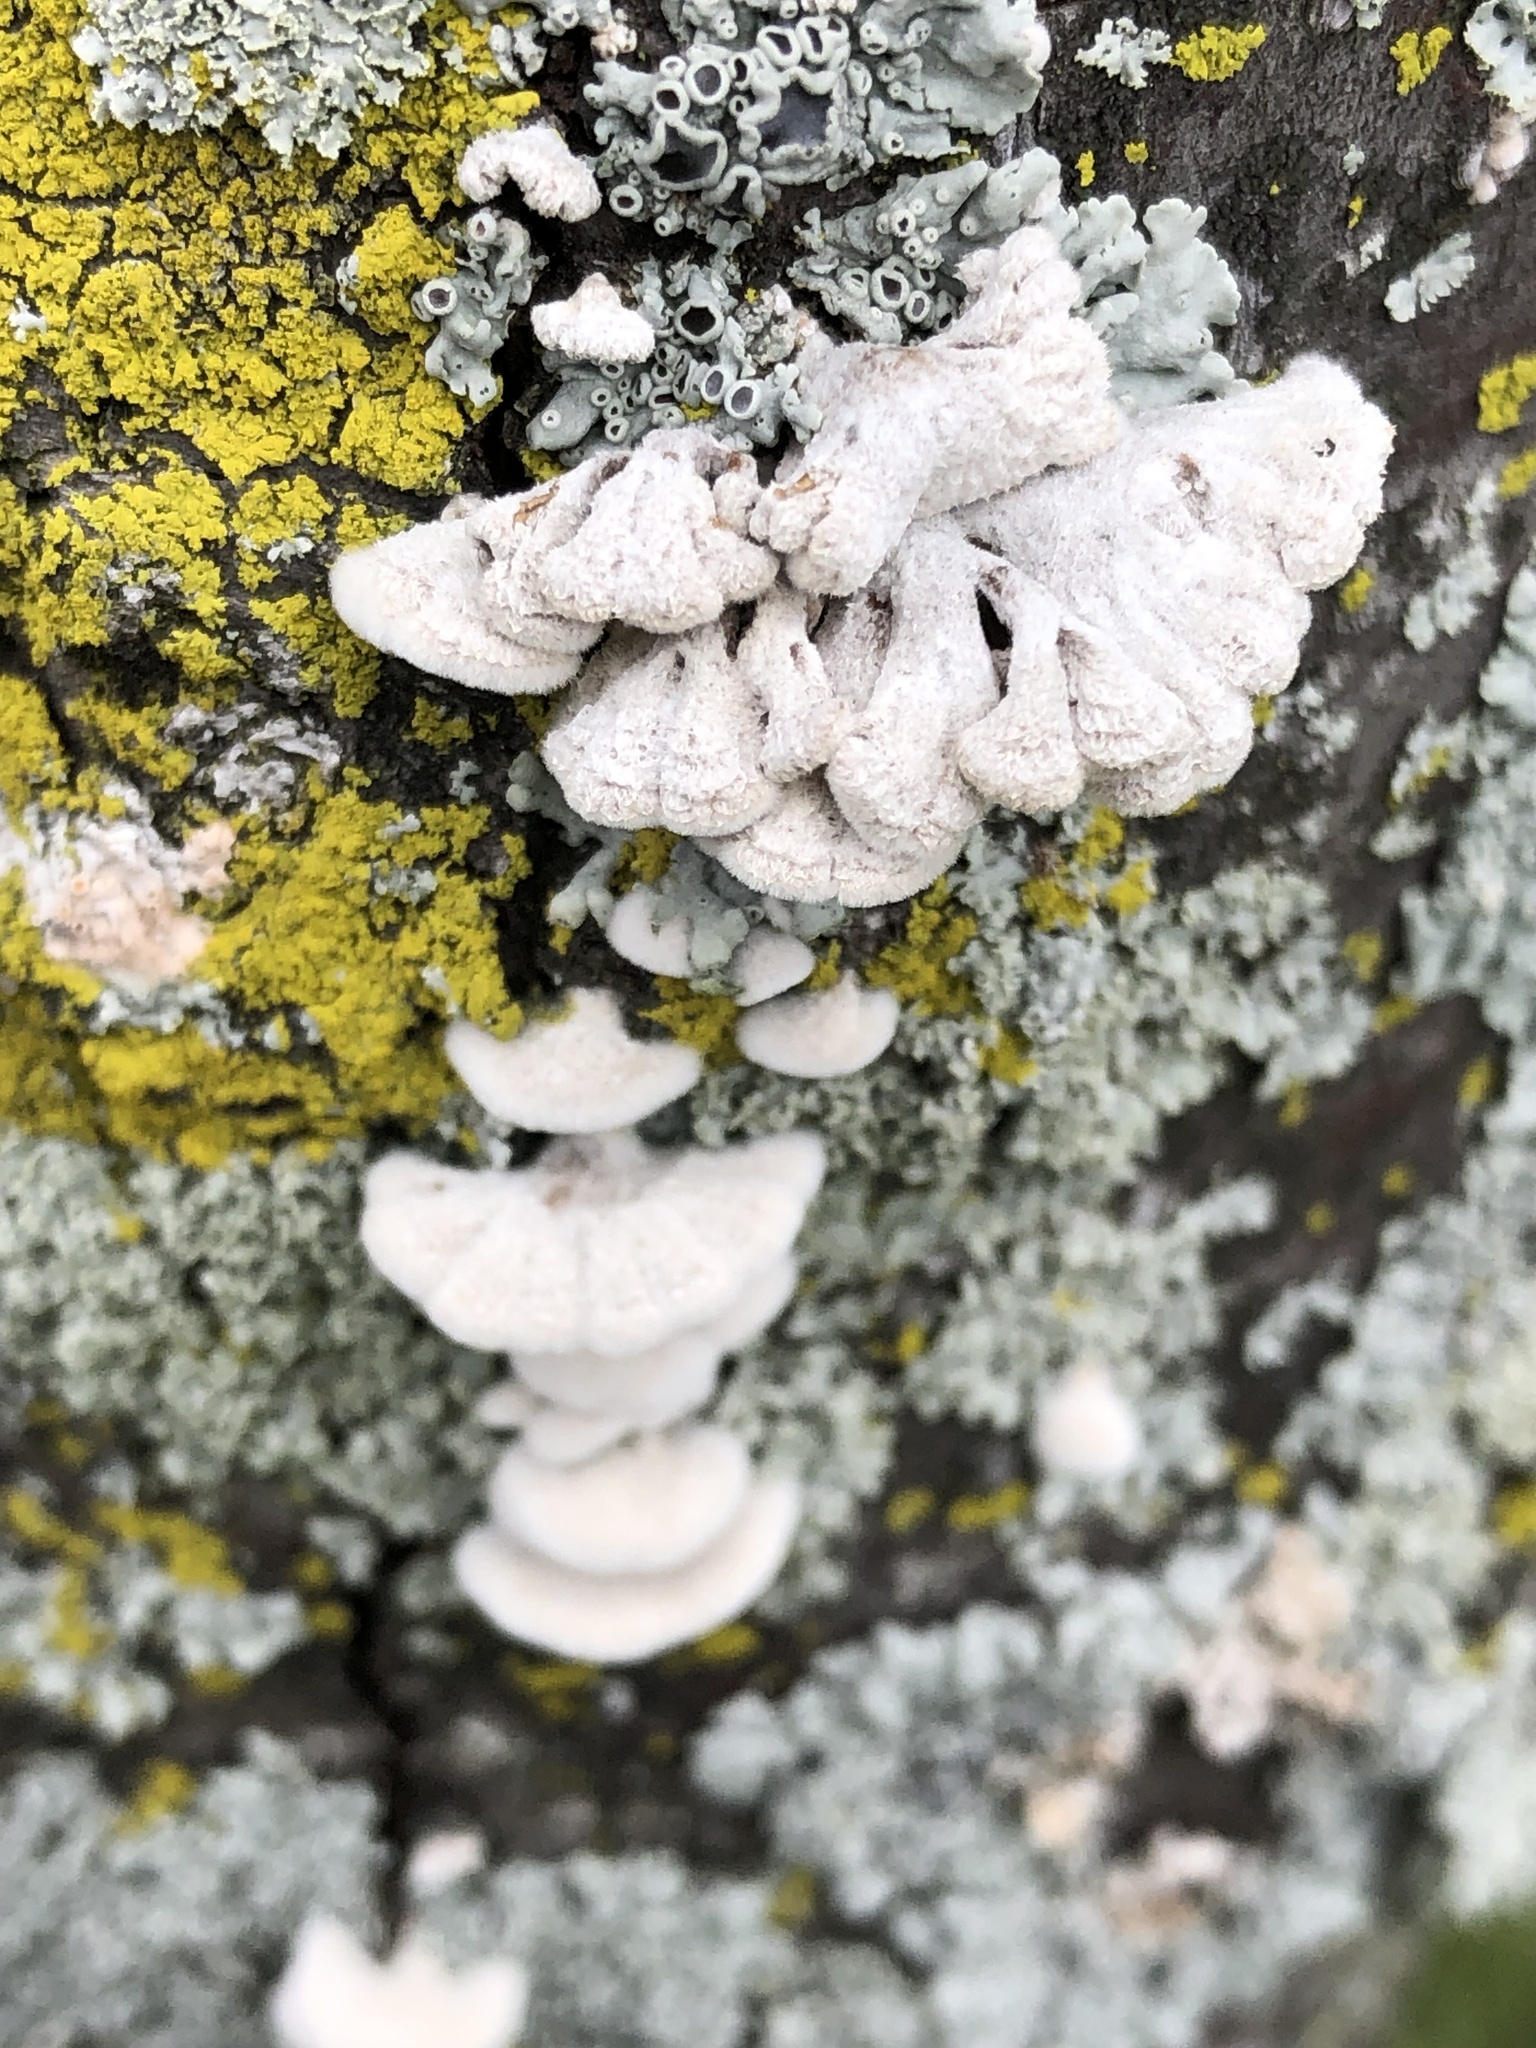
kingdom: Fungi
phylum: Basidiomycota
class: Agaricomycetes
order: Agaricales
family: Schizophyllaceae
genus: Schizophyllum
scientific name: Schizophyllum commune
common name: Common porecrust
